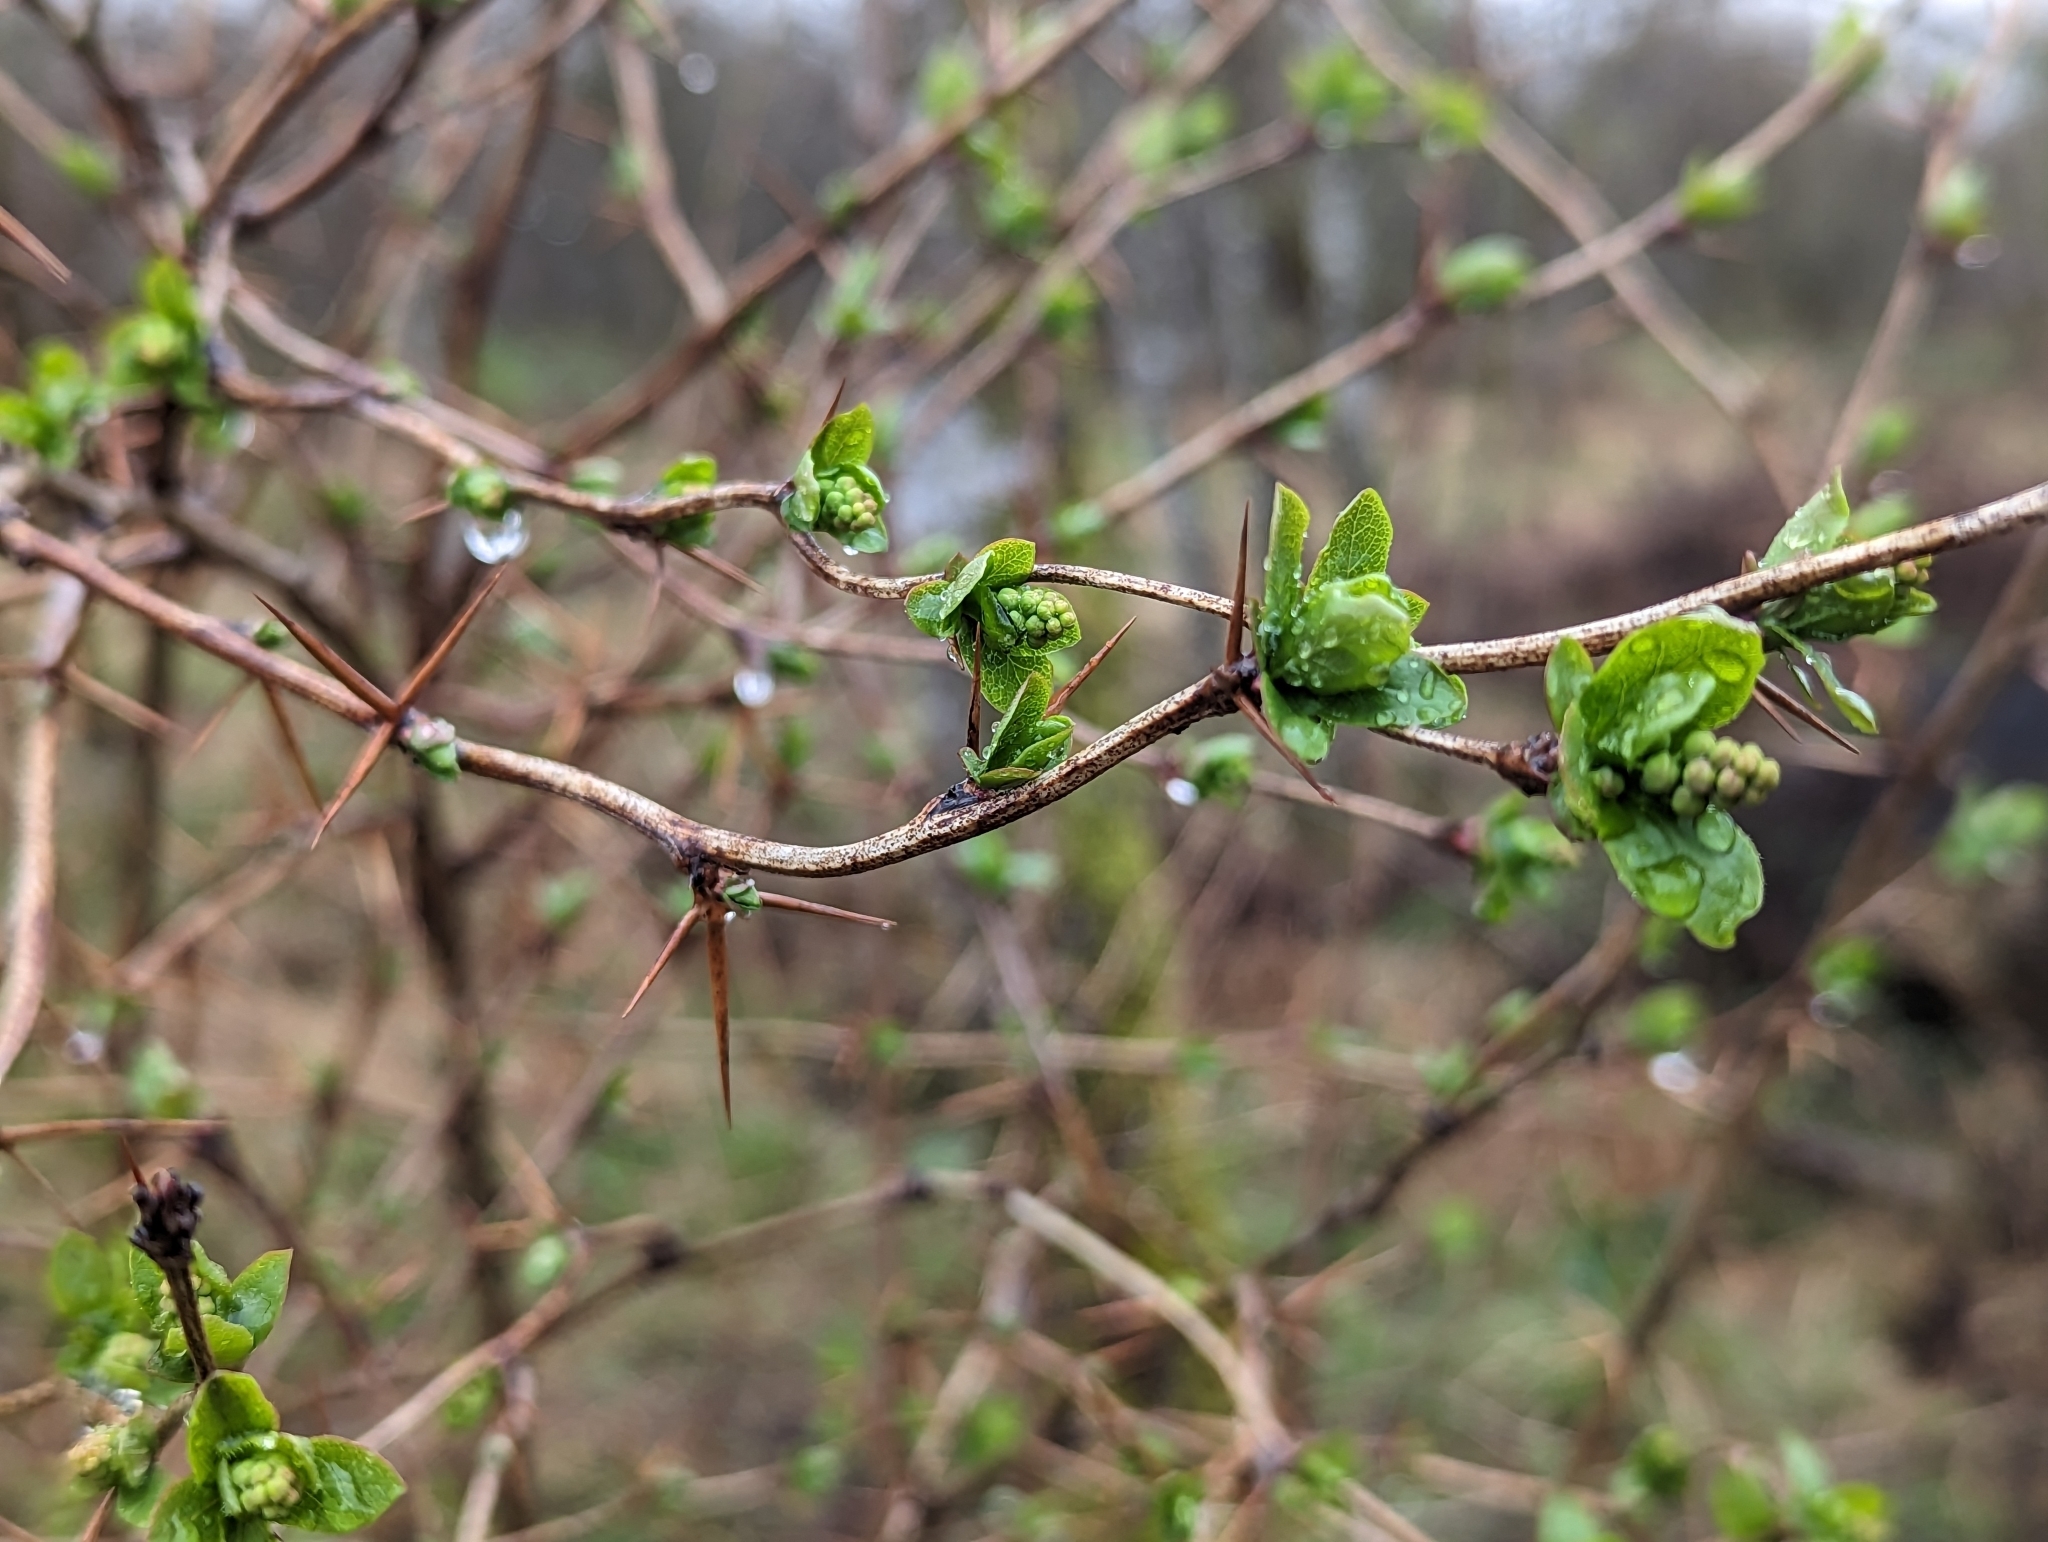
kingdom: Plantae
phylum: Tracheophyta
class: Magnoliopsida
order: Ranunculales
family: Berberidaceae
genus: Berberis
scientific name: Berberis vulgaris
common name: Barberry
